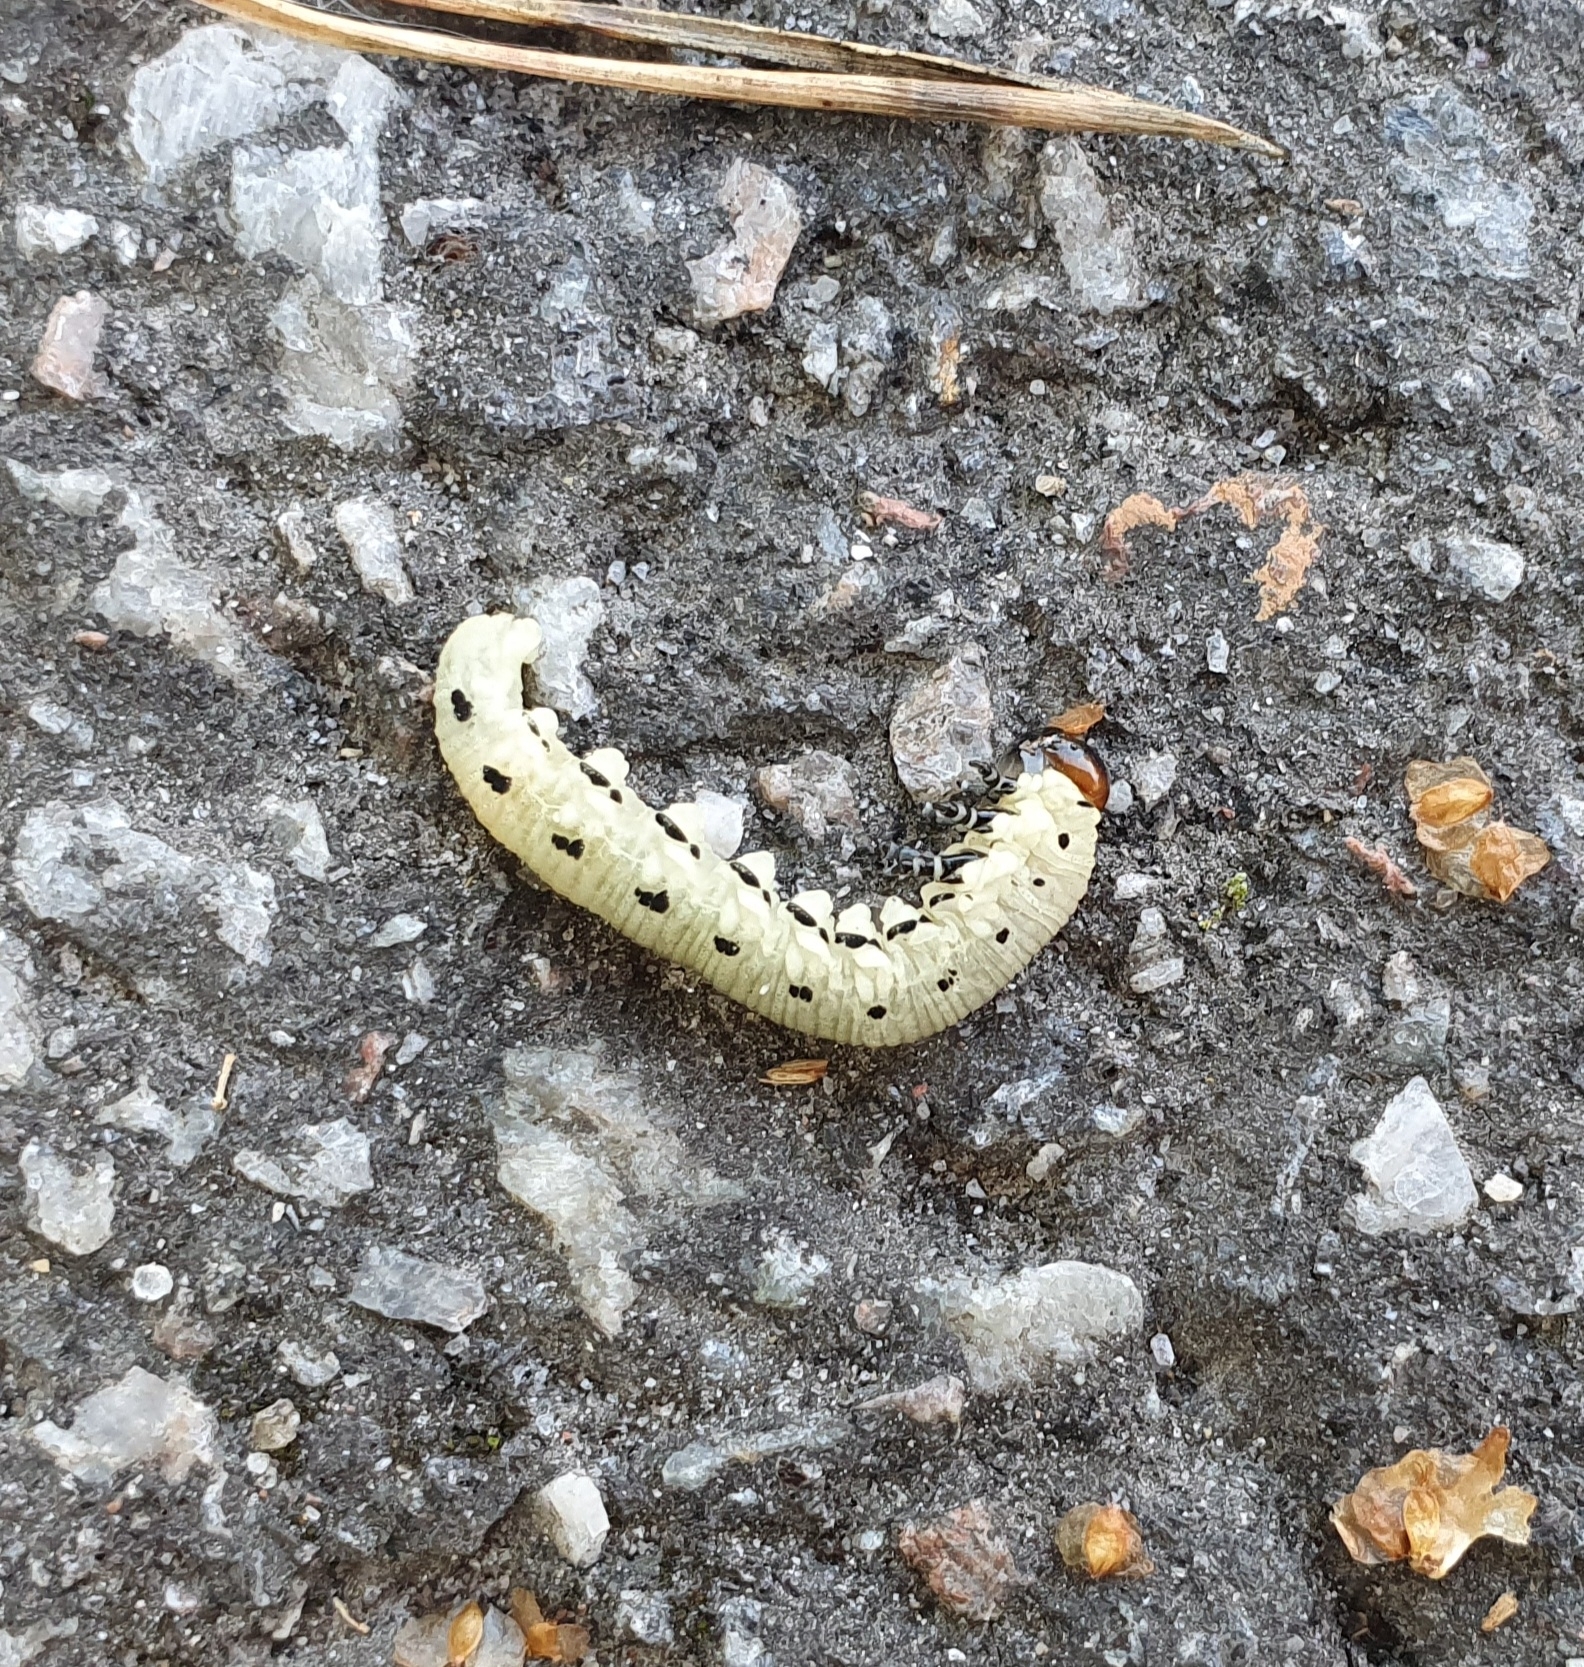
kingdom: Animalia
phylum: Arthropoda
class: Insecta
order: Hymenoptera
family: Diprionidae
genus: Diprion
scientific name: Diprion pini
